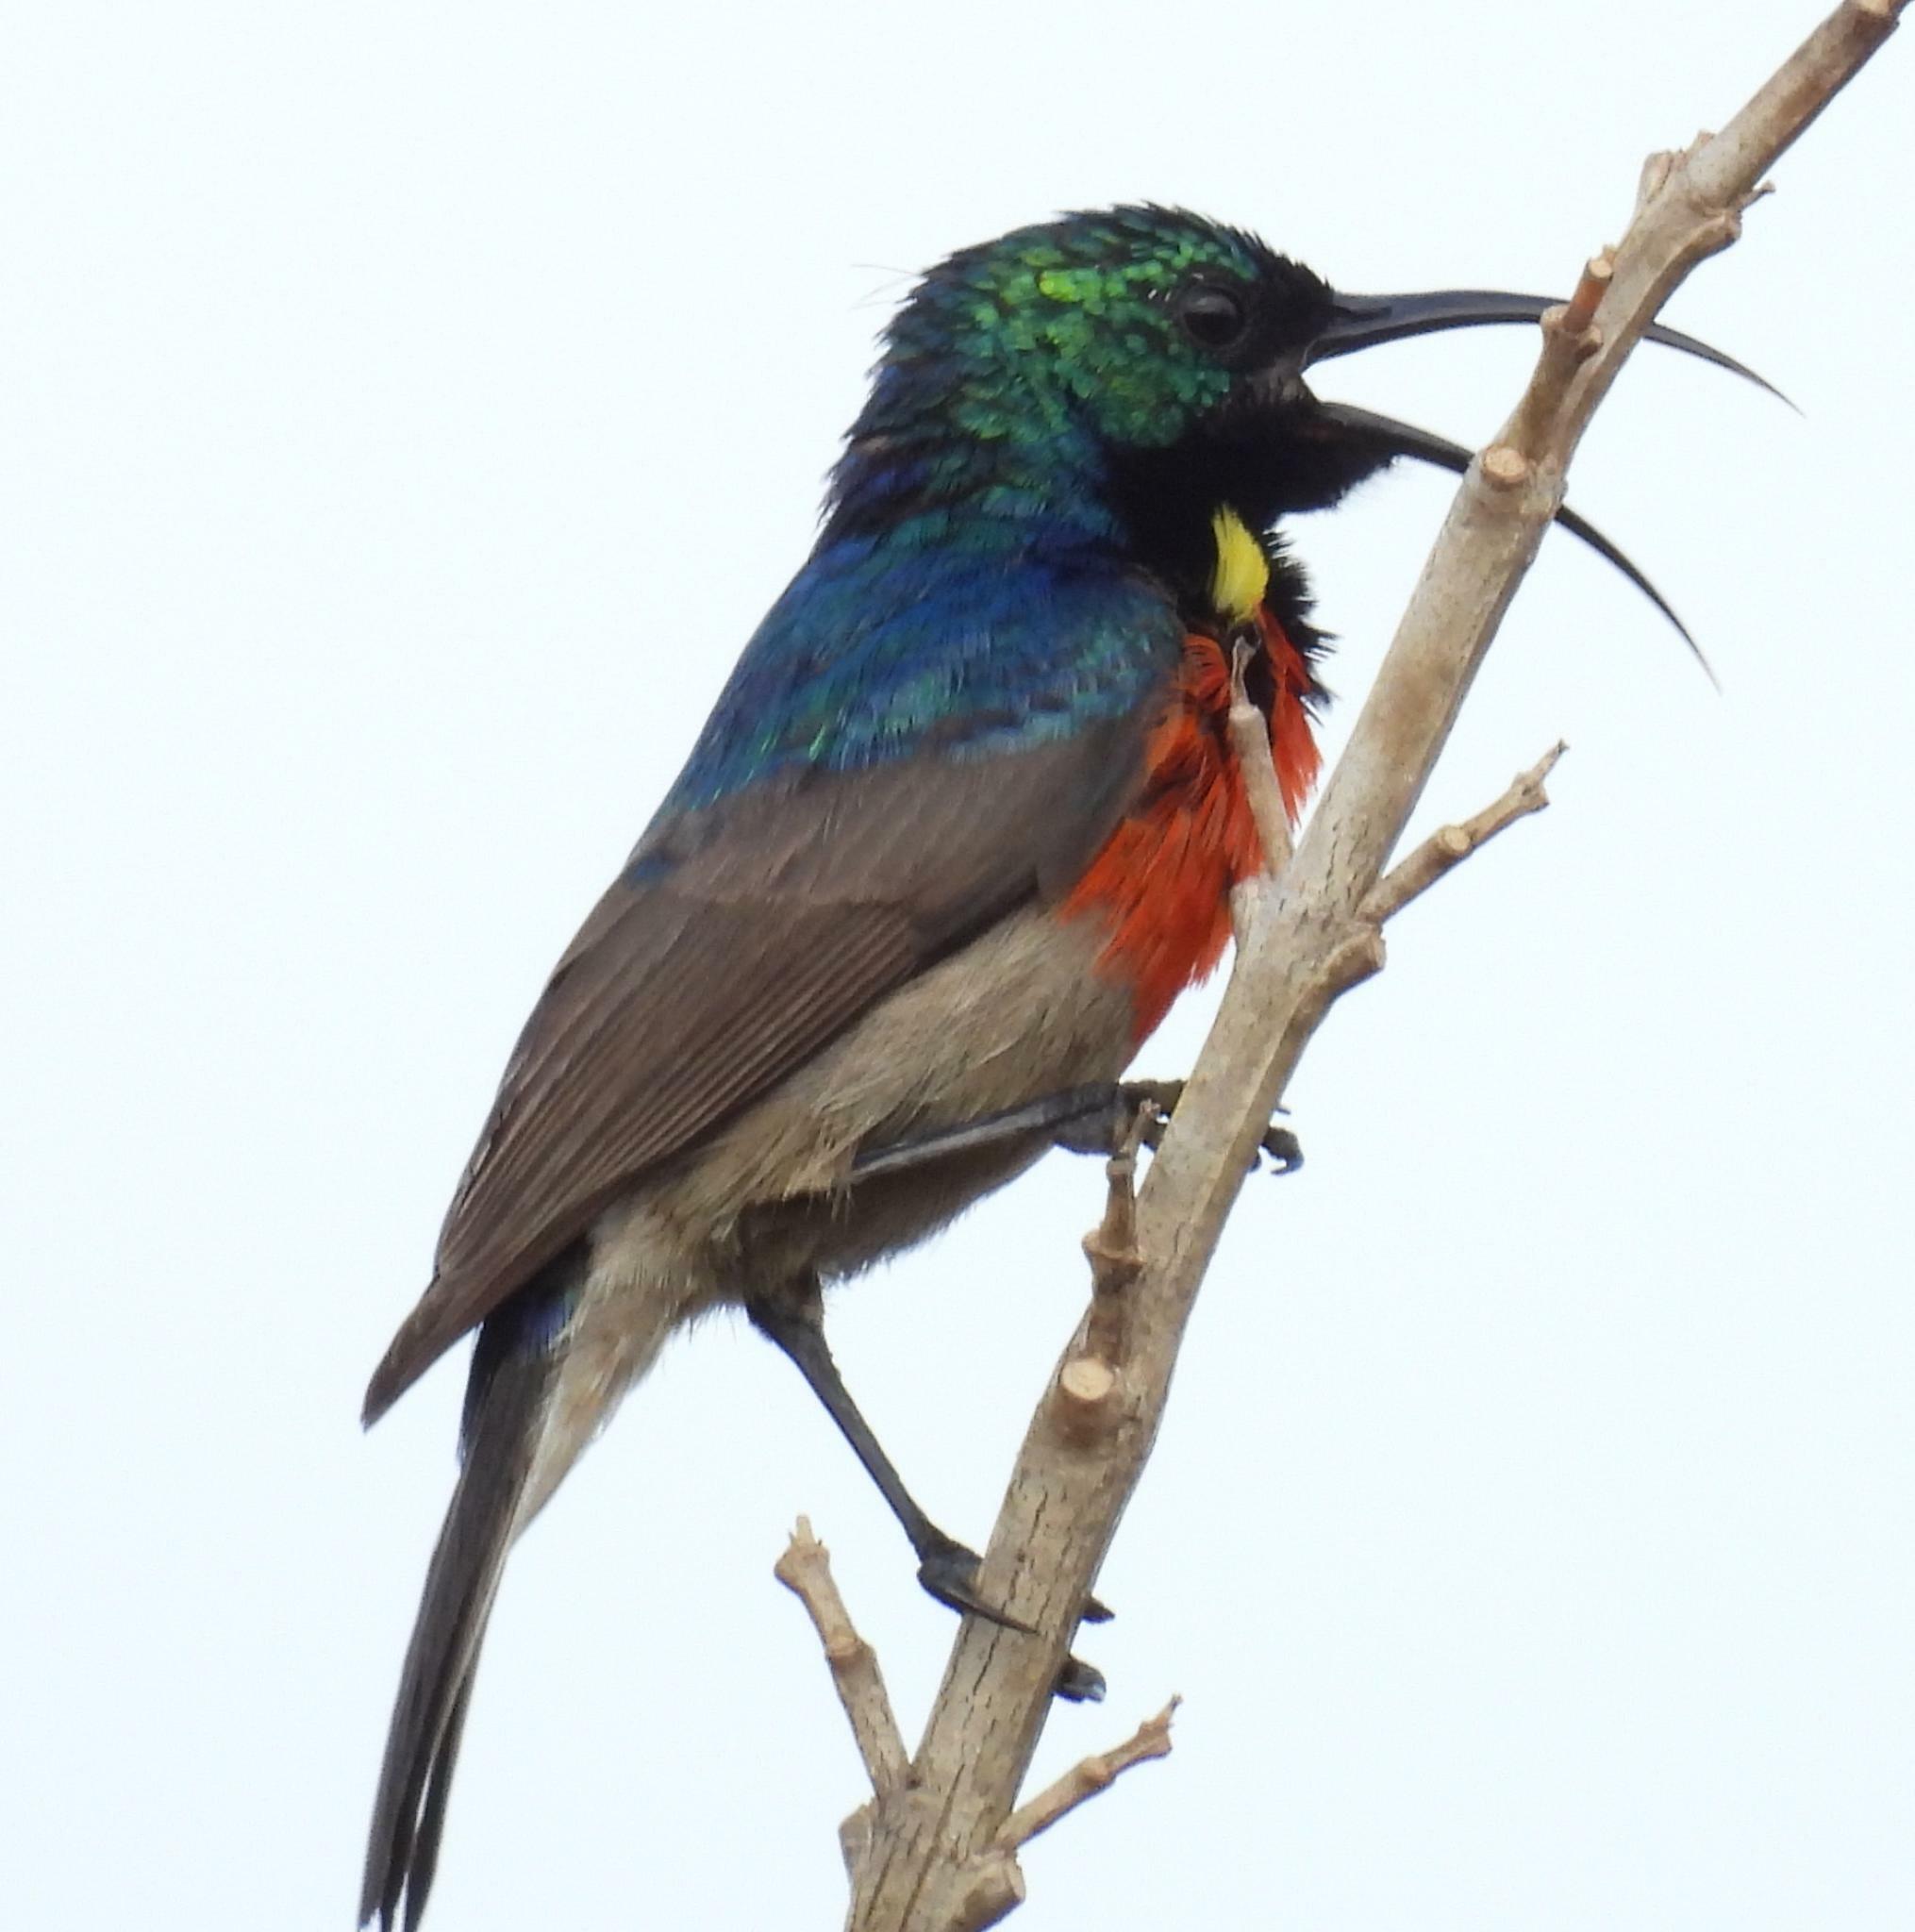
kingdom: Animalia
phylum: Chordata
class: Aves
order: Passeriformes
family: Nectariniidae
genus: Cinnyris
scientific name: Cinnyris afer
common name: Greater double-collared sunbird
